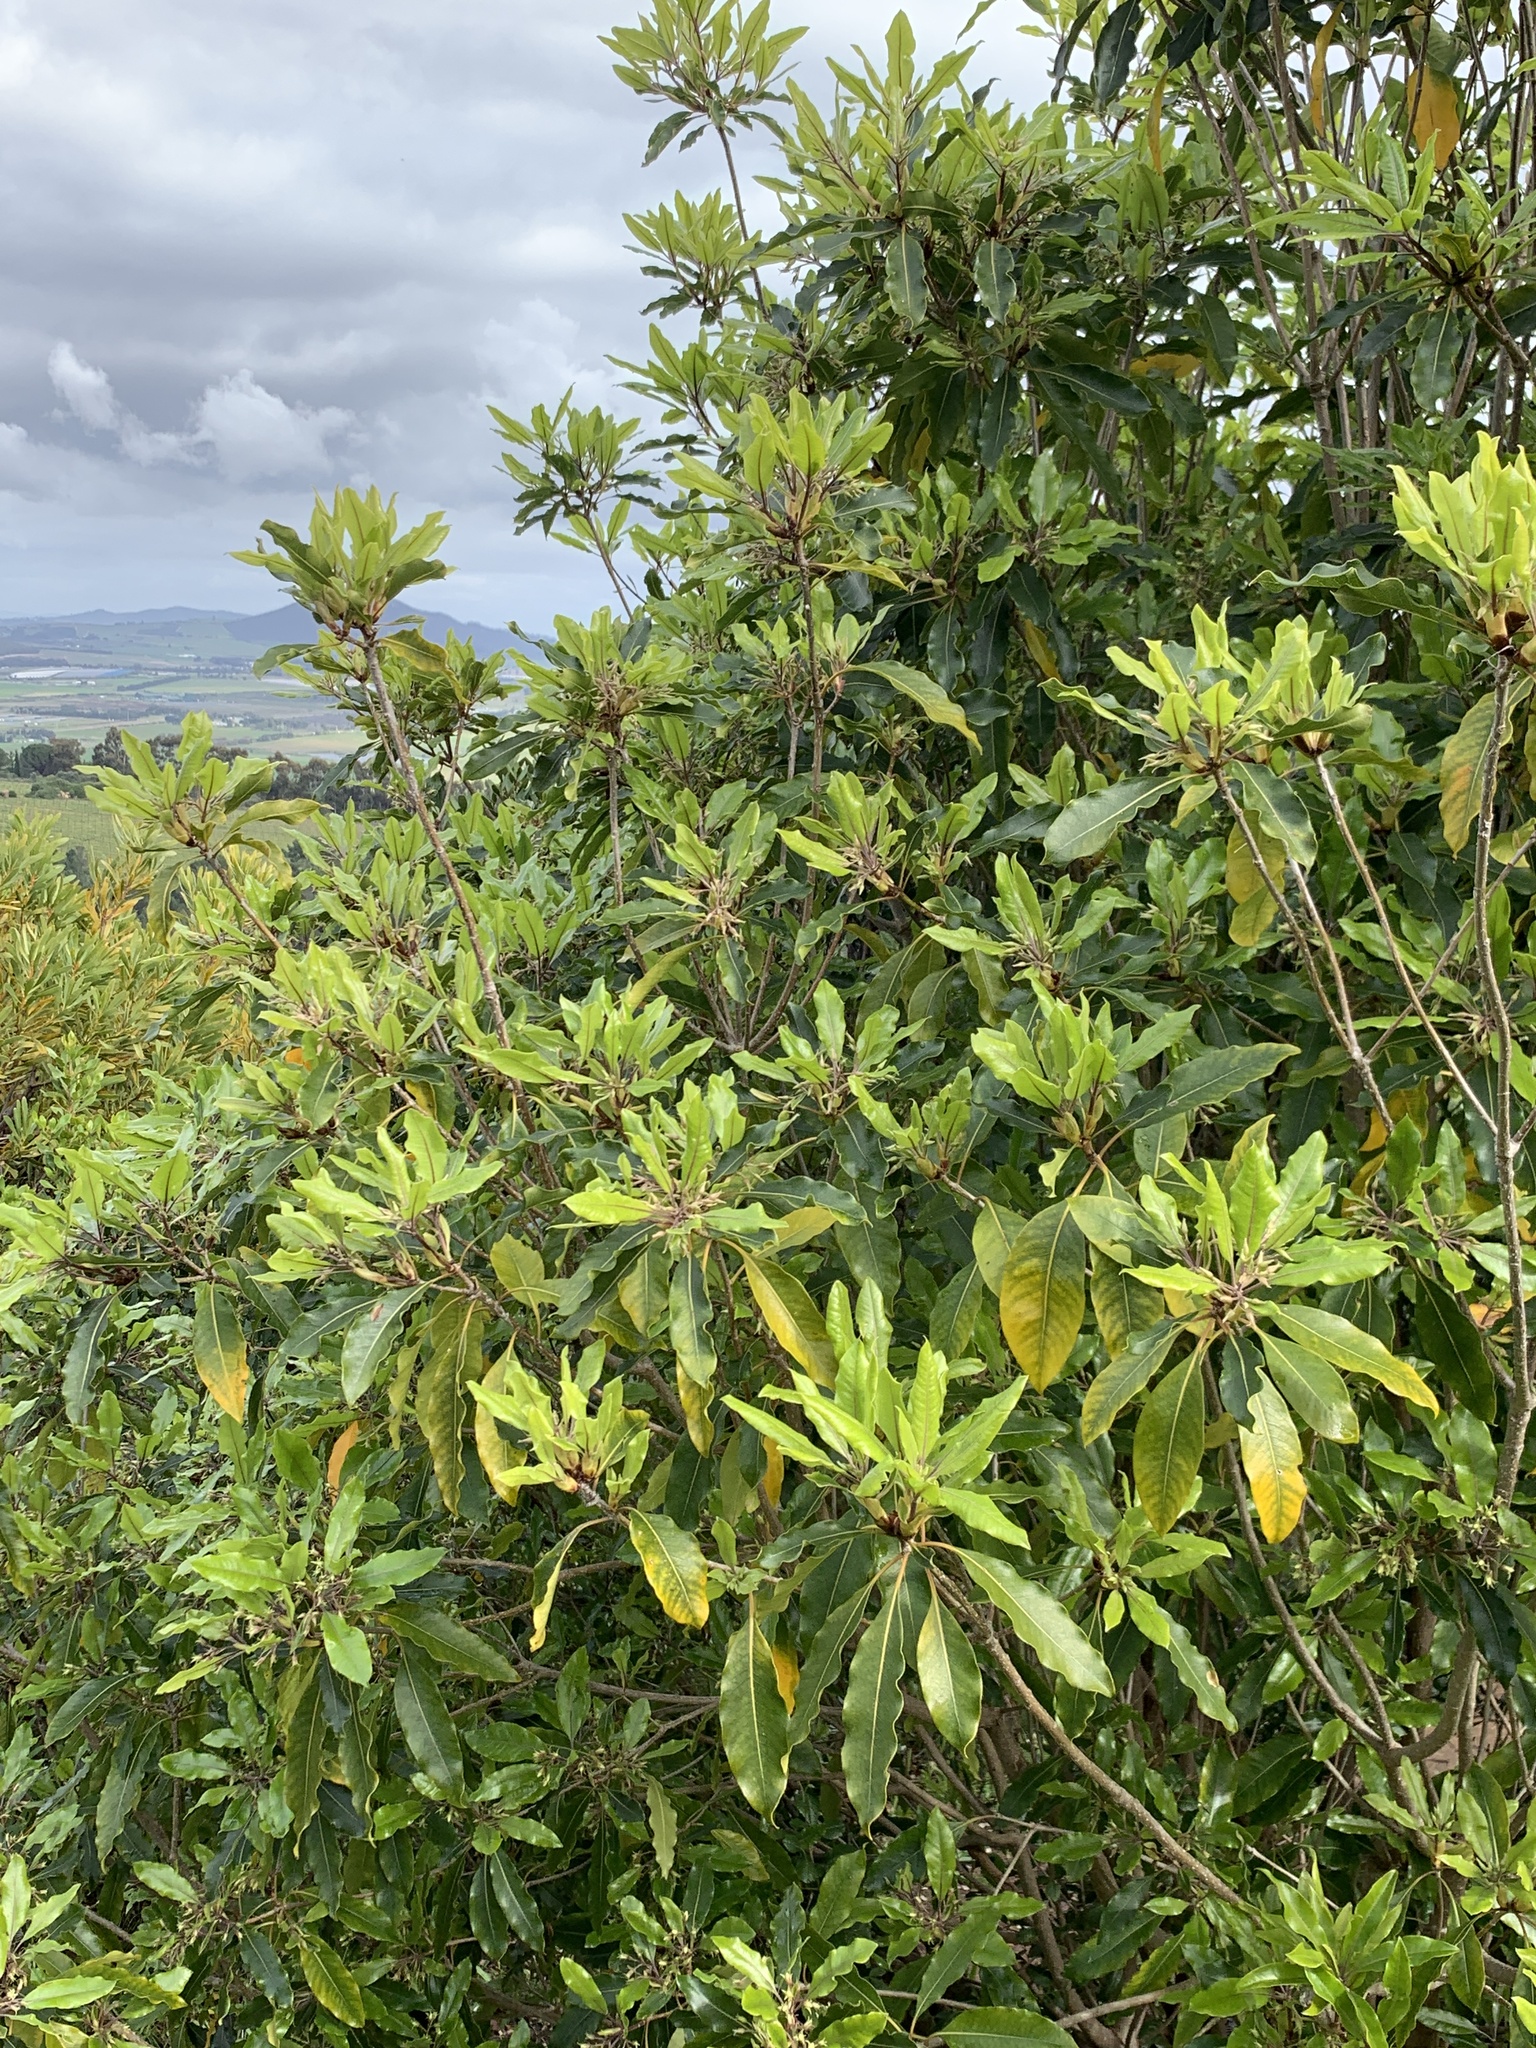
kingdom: Plantae
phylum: Tracheophyta
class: Magnoliopsida
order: Apiales
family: Pittosporaceae
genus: Pittosporum
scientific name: Pittosporum undulatum
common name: Australian cheesewood
